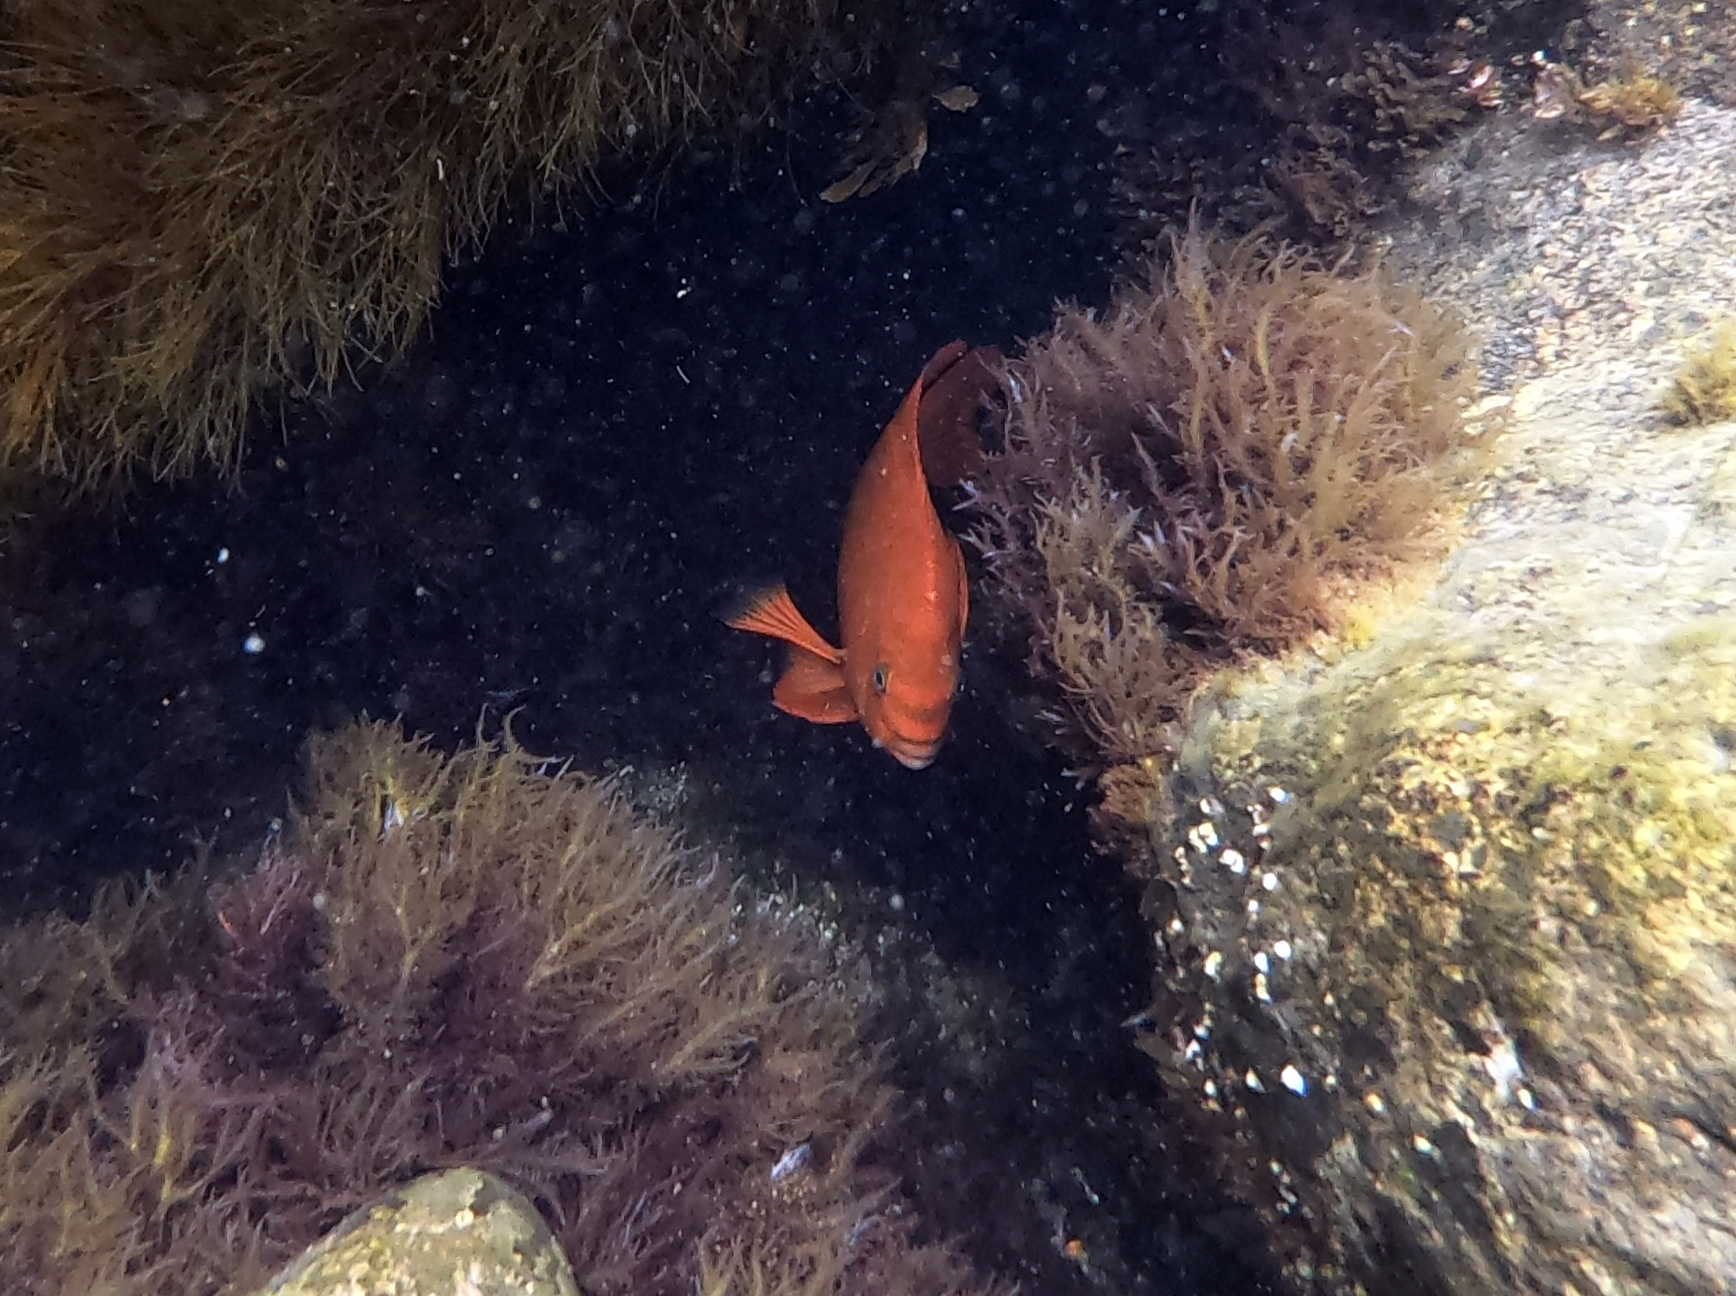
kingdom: Animalia
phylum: Chordata
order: Perciformes
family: Pomacentridae
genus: Hypsypops
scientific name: Hypsypops rubicundus
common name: Garibaldi
